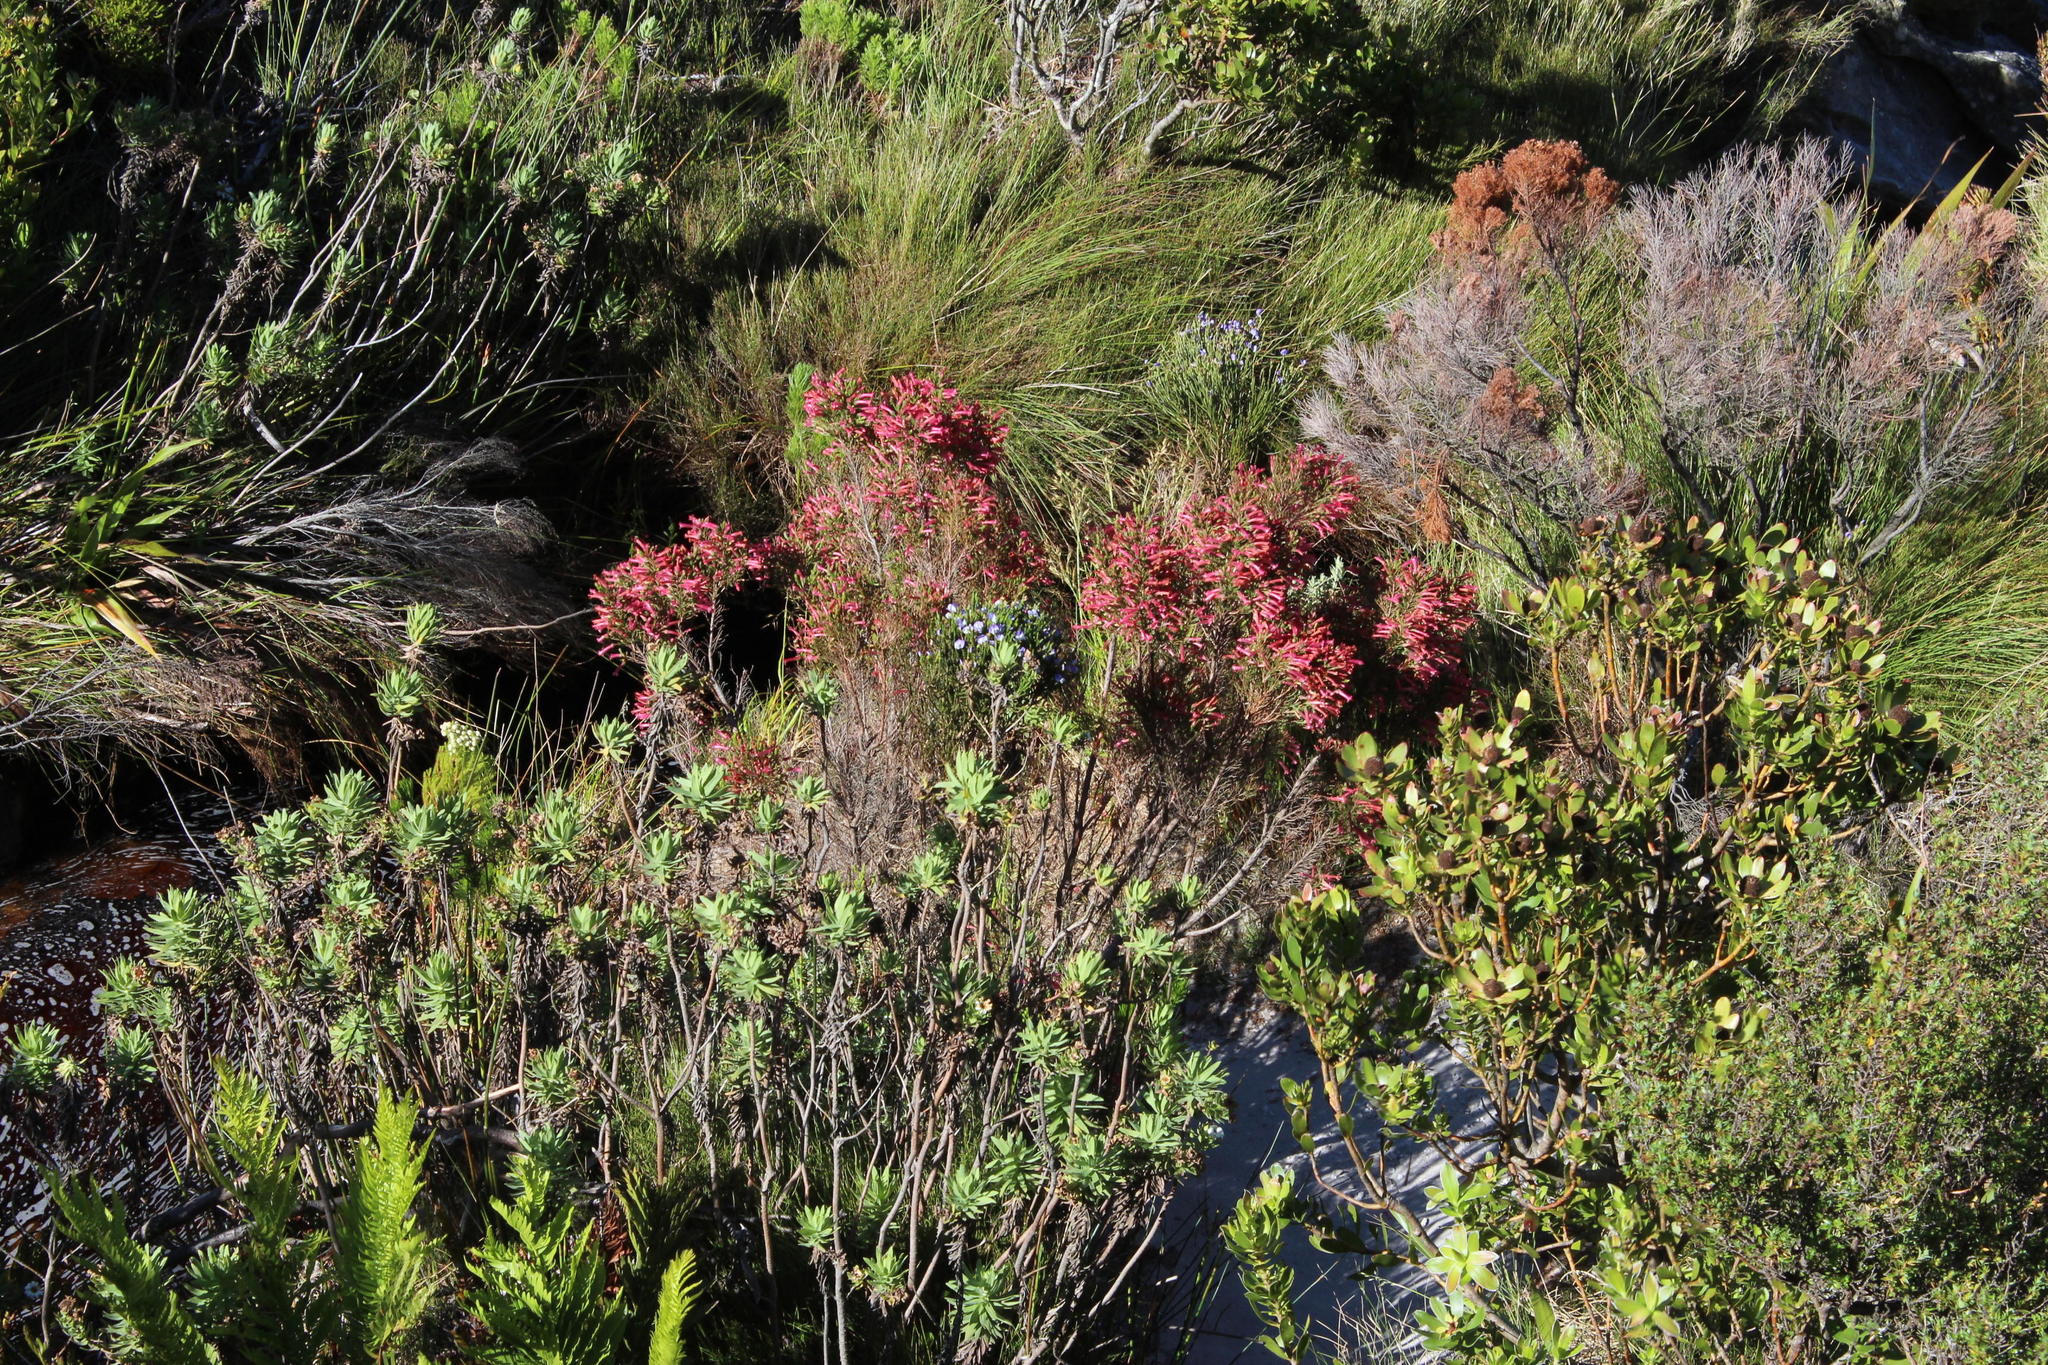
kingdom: Plantae
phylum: Tracheophyta
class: Magnoliopsida
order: Ericales
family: Ericaceae
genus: Erica
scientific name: Erica curviflora
